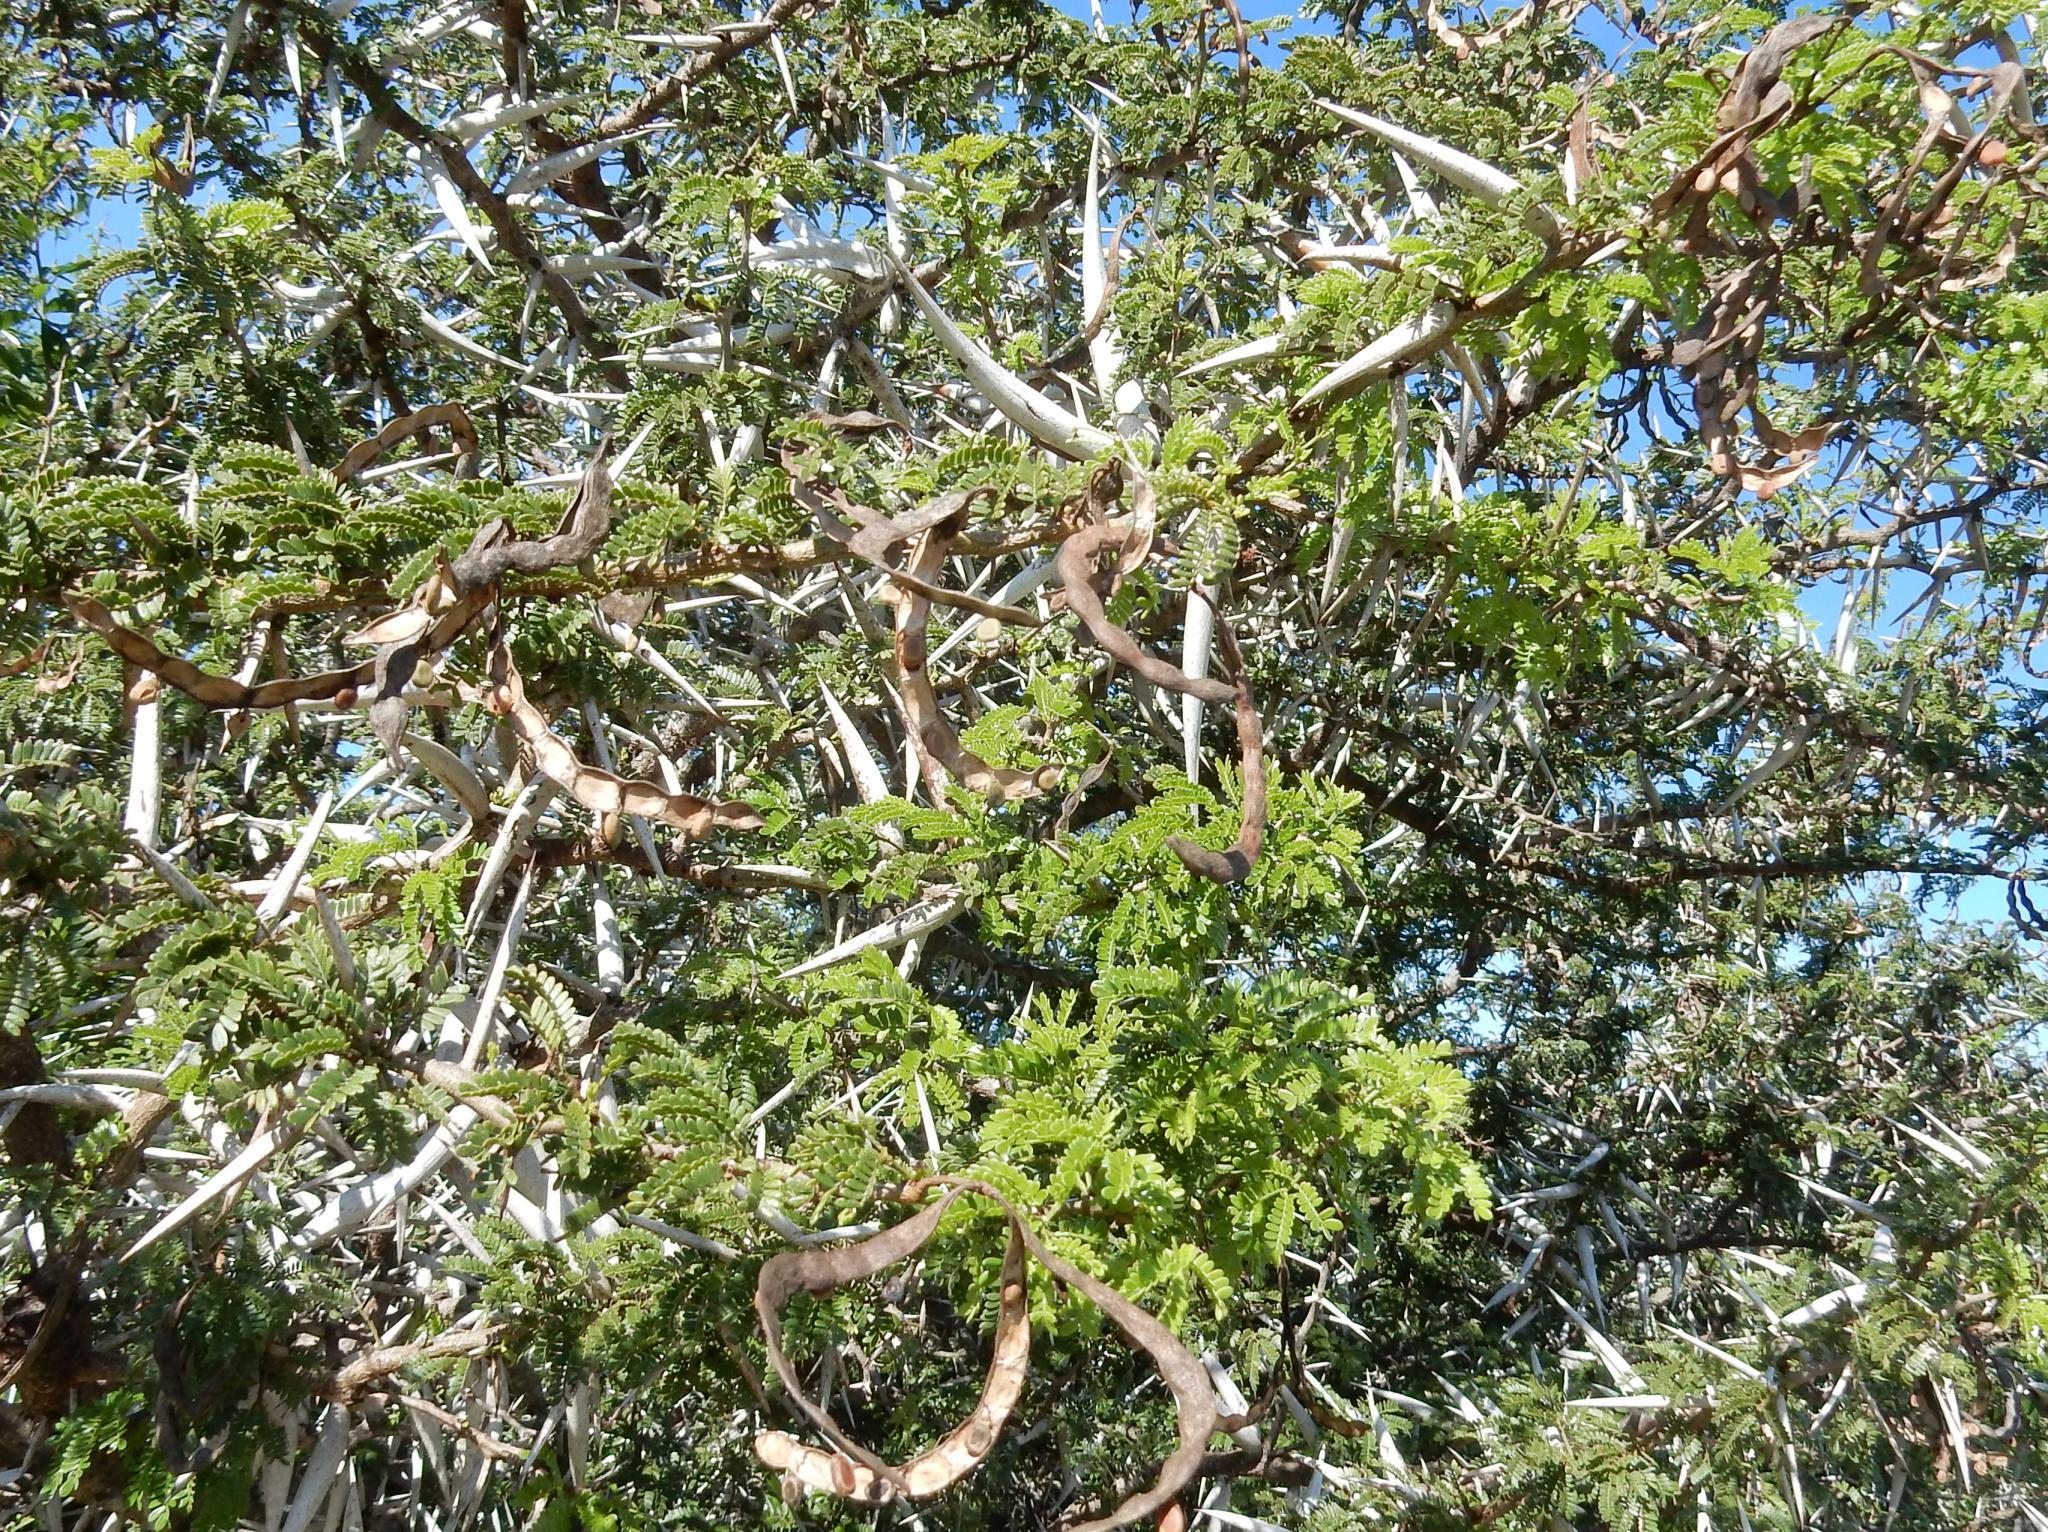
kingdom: Plantae
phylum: Tracheophyta
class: Magnoliopsida
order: Fabales
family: Fabaceae
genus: Vachellia
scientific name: Vachellia karroo
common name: Sweet thorn
